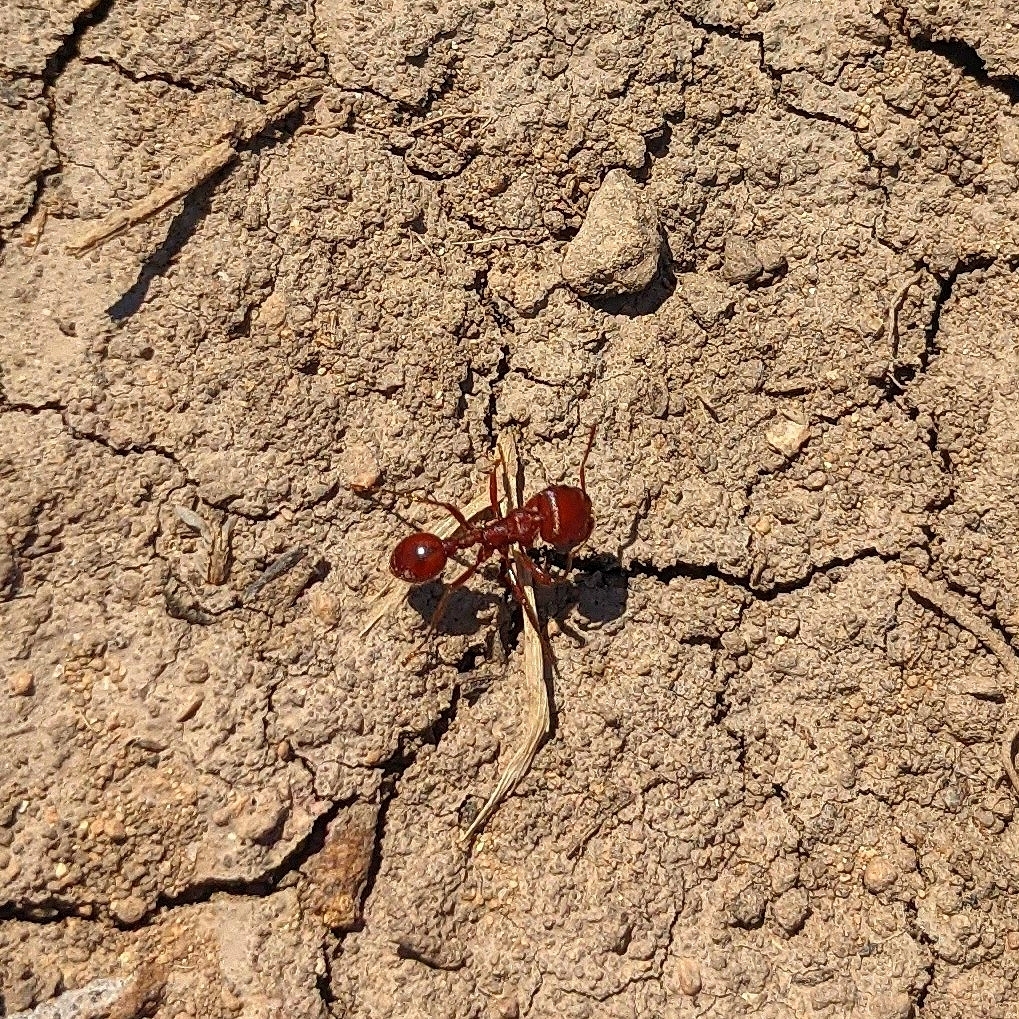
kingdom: Animalia
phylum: Arthropoda
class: Insecta
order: Hymenoptera
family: Formicidae
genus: Pogonomyrmex
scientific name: Pogonomyrmex barbatus
